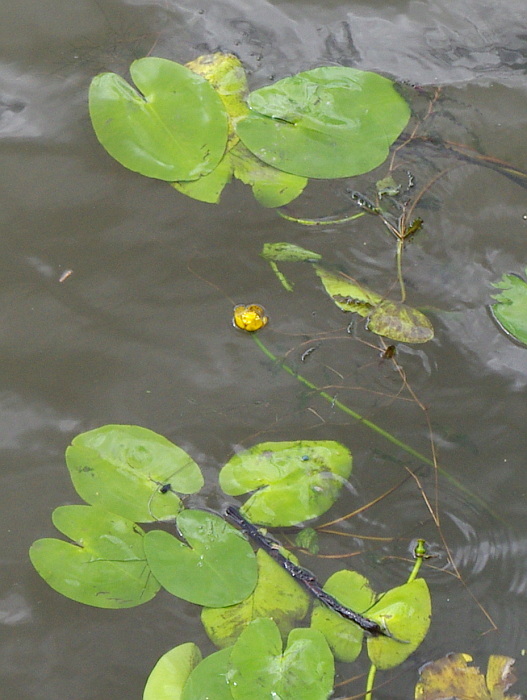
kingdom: Plantae
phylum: Tracheophyta
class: Magnoliopsida
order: Nymphaeales
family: Nymphaeaceae
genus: Nuphar
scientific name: Nuphar lutea
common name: Yellow water-lily
